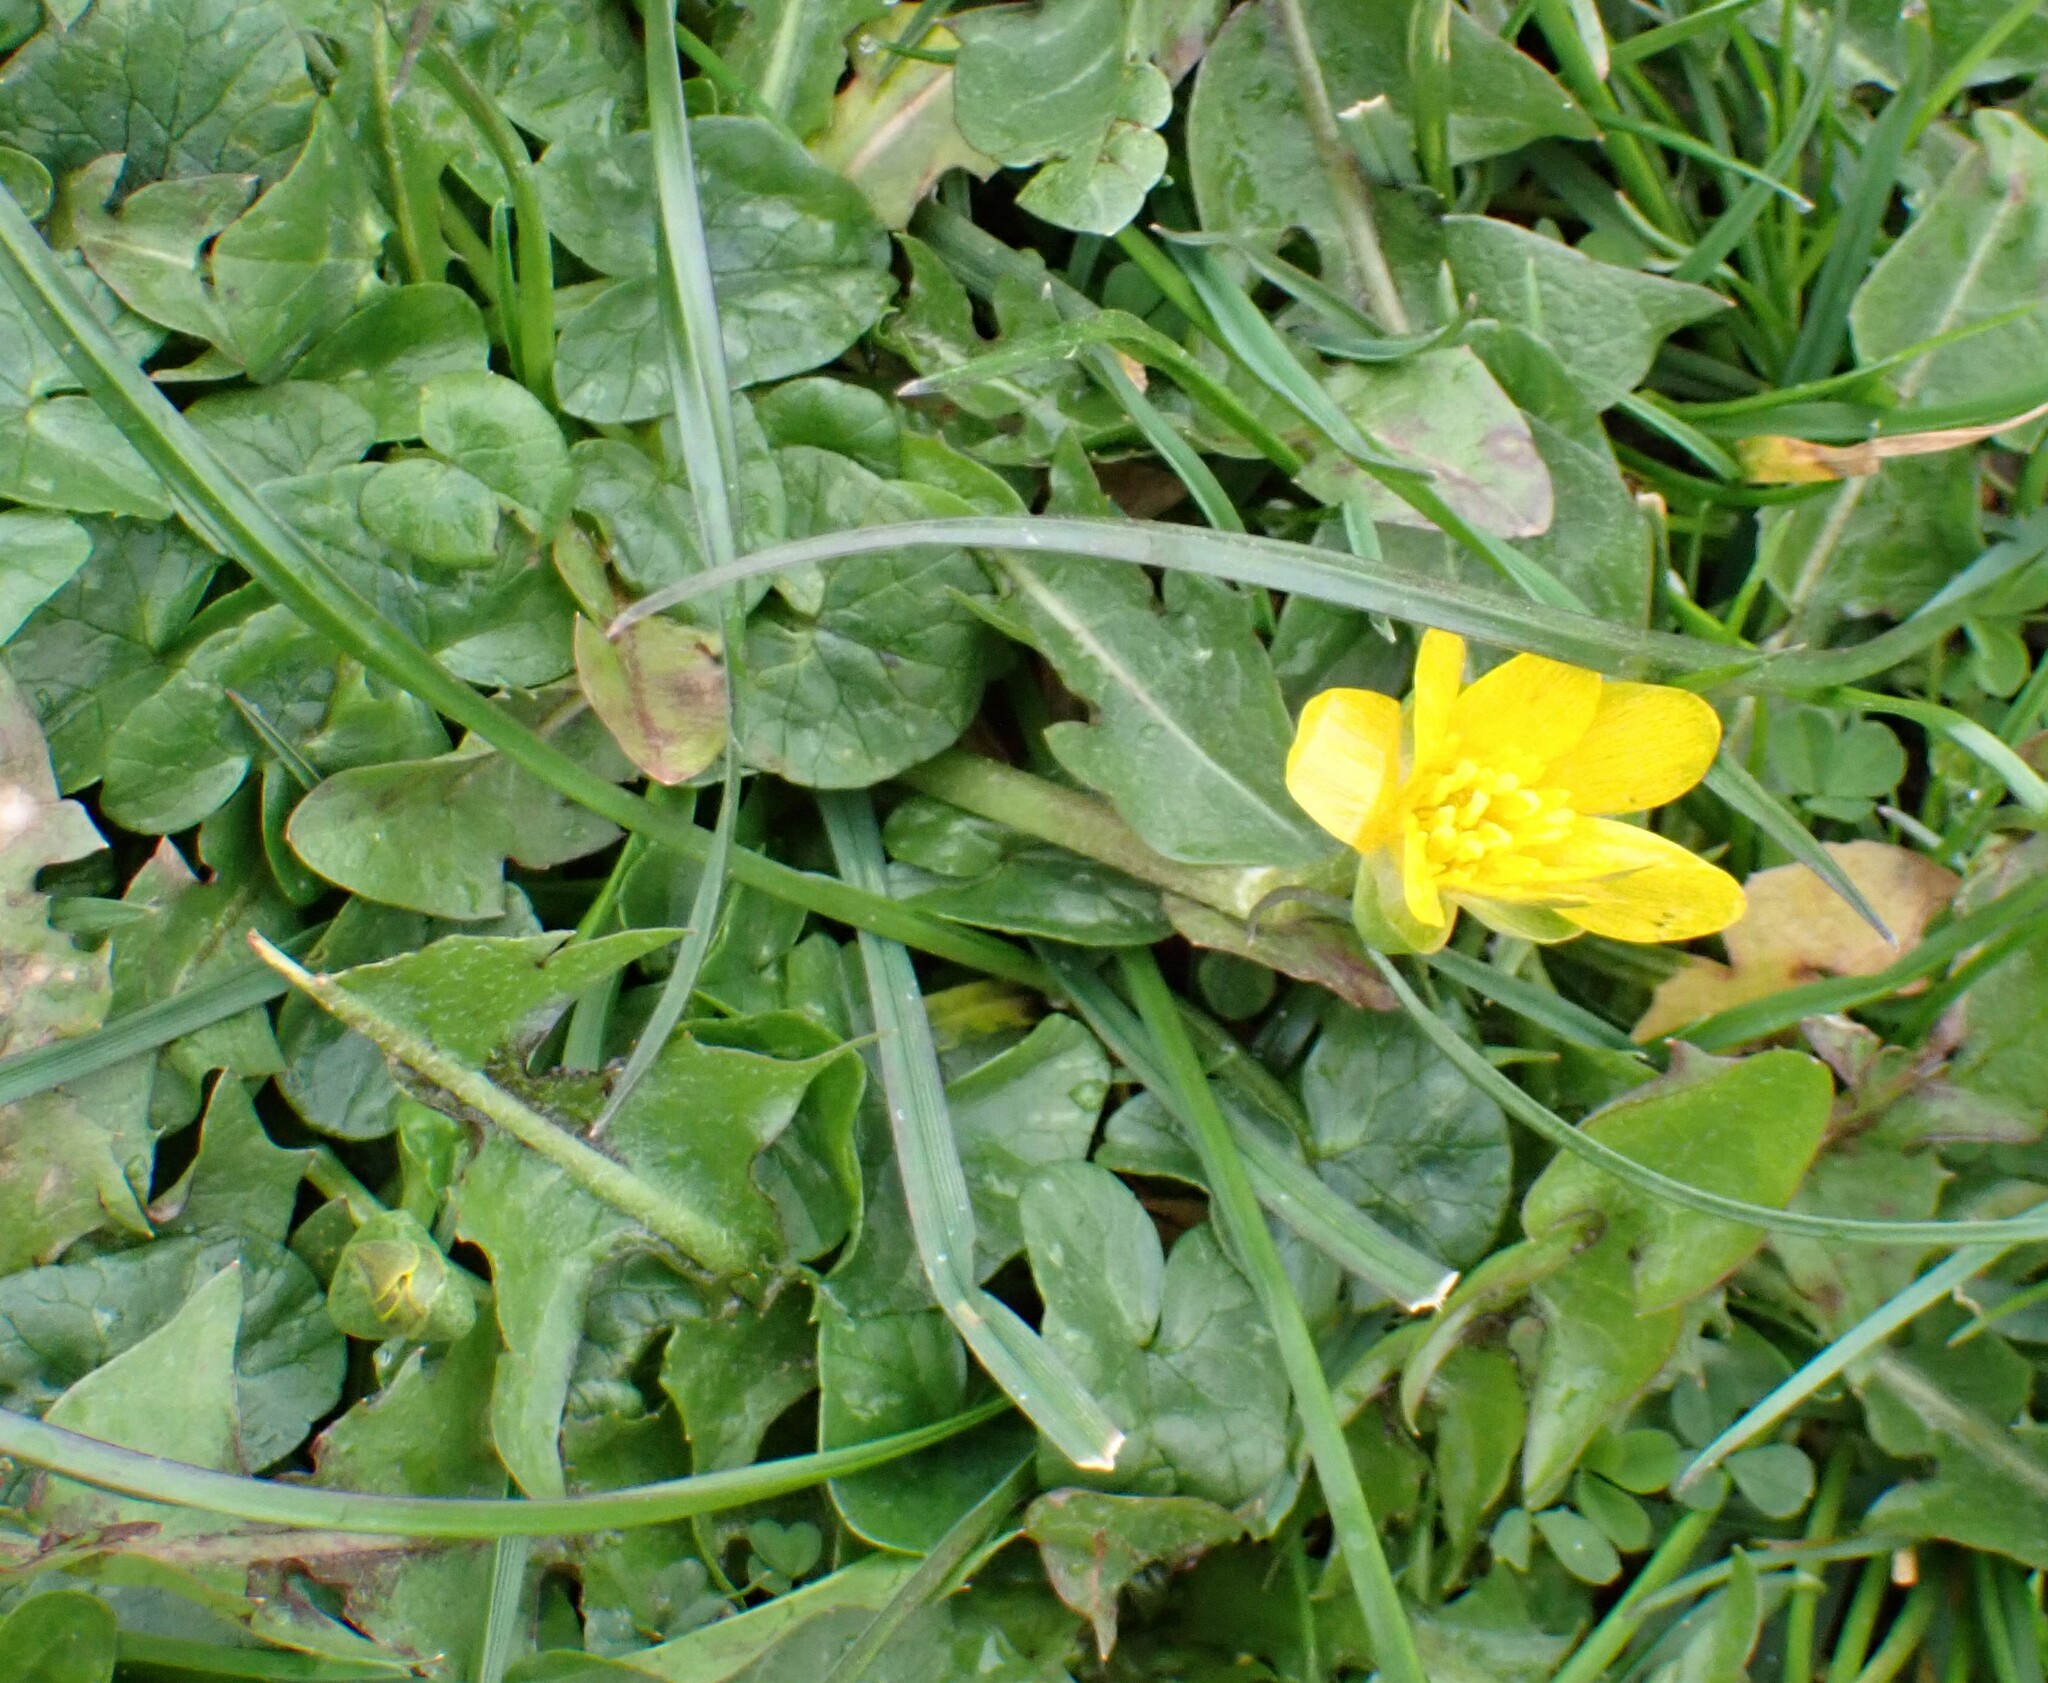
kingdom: Plantae
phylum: Tracheophyta
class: Magnoliopsida
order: Ranunculales
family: Ranunculaceae
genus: Ficaria
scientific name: Ficaria verna
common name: Lesser celandine
